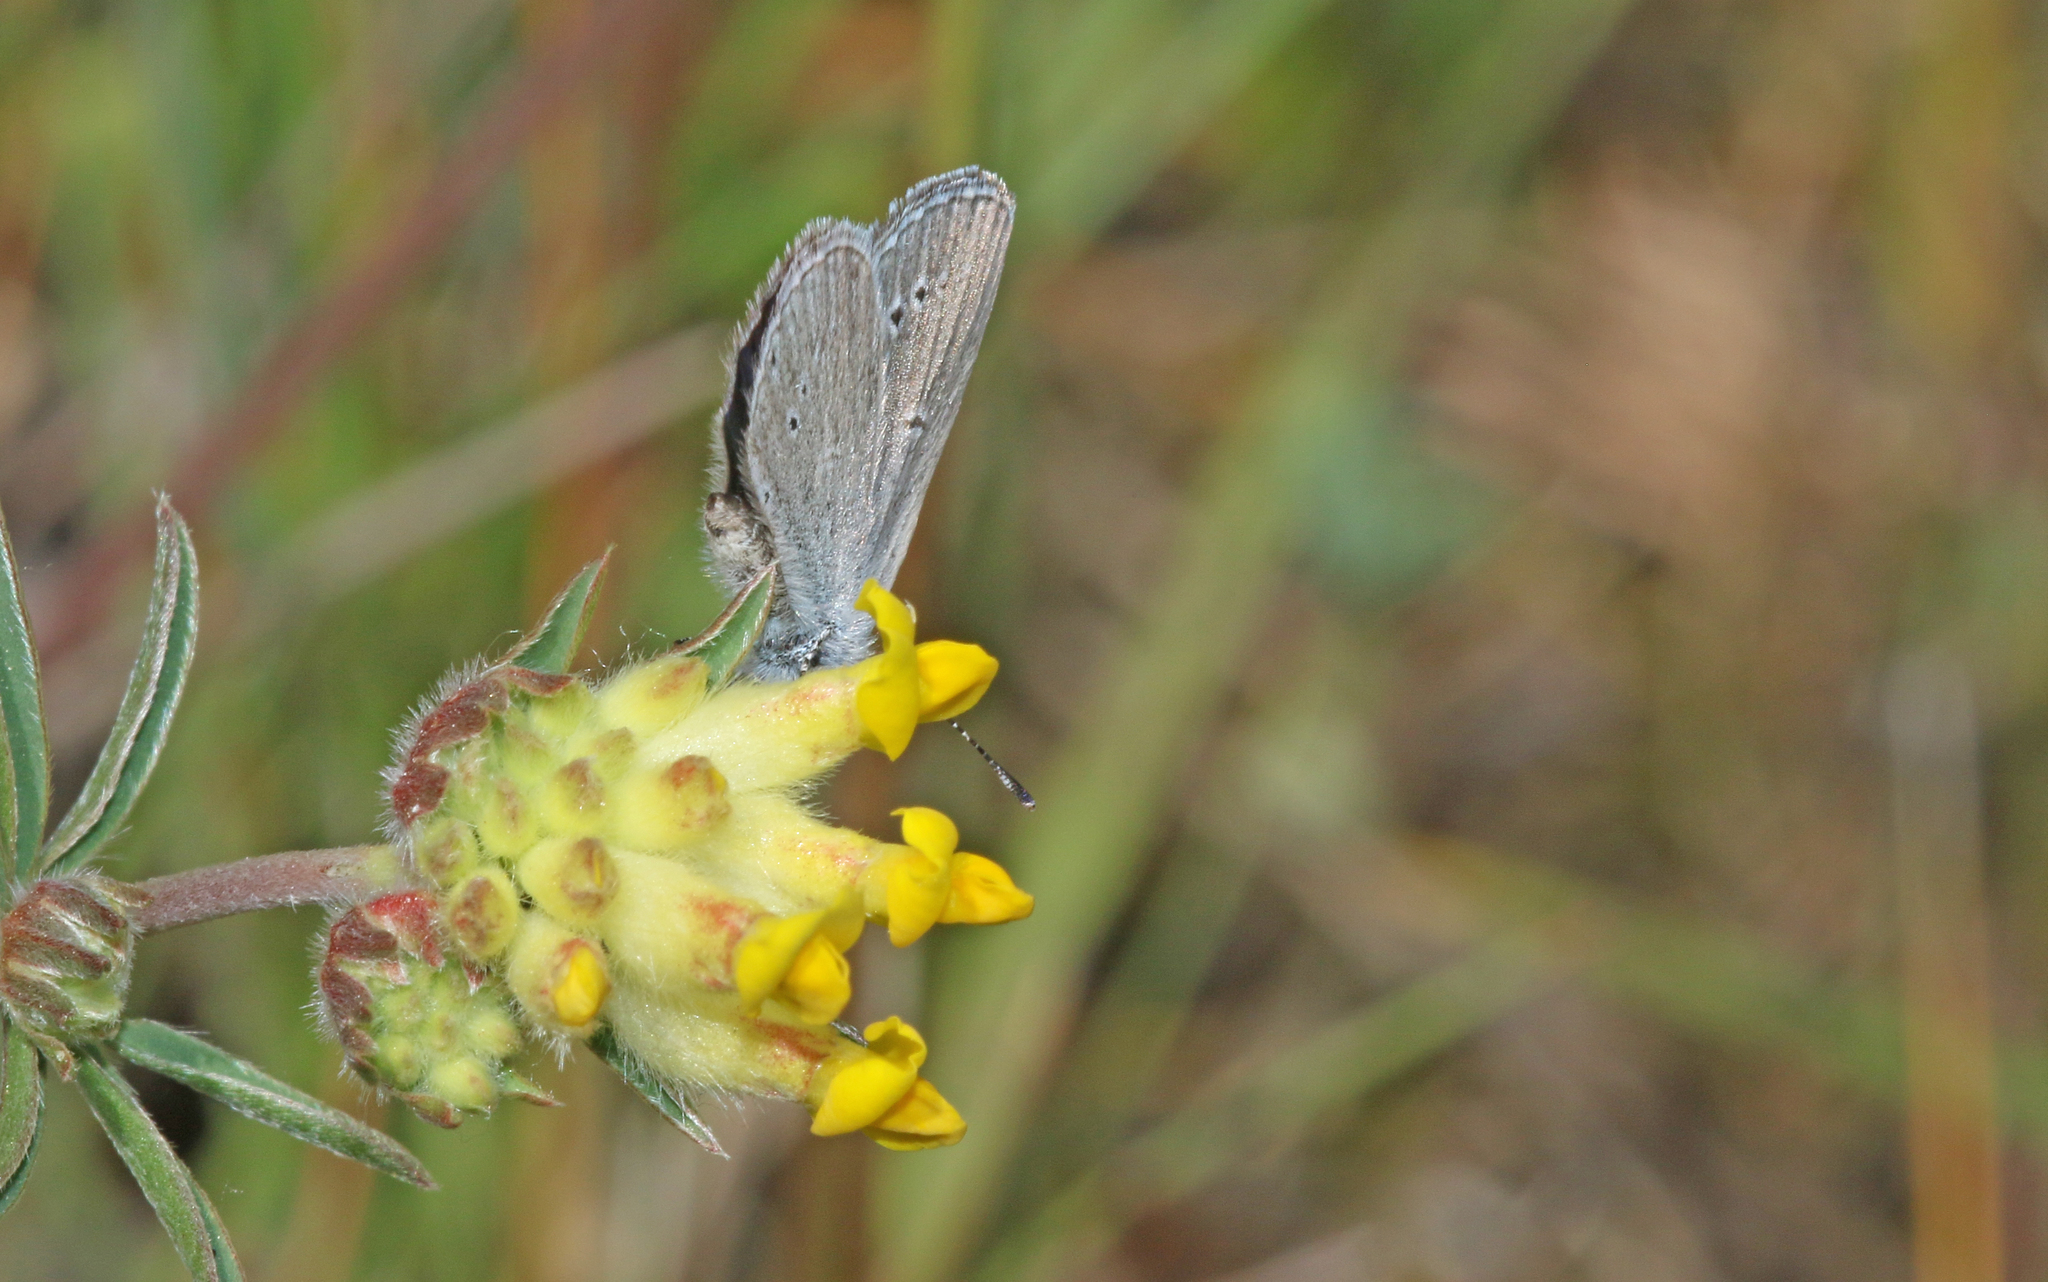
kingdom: Animalia
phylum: Arthropoda
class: Insecta
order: Lepidoptera
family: Lycaenidae
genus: Cupido
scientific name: Cupido minimus
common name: Small blue
